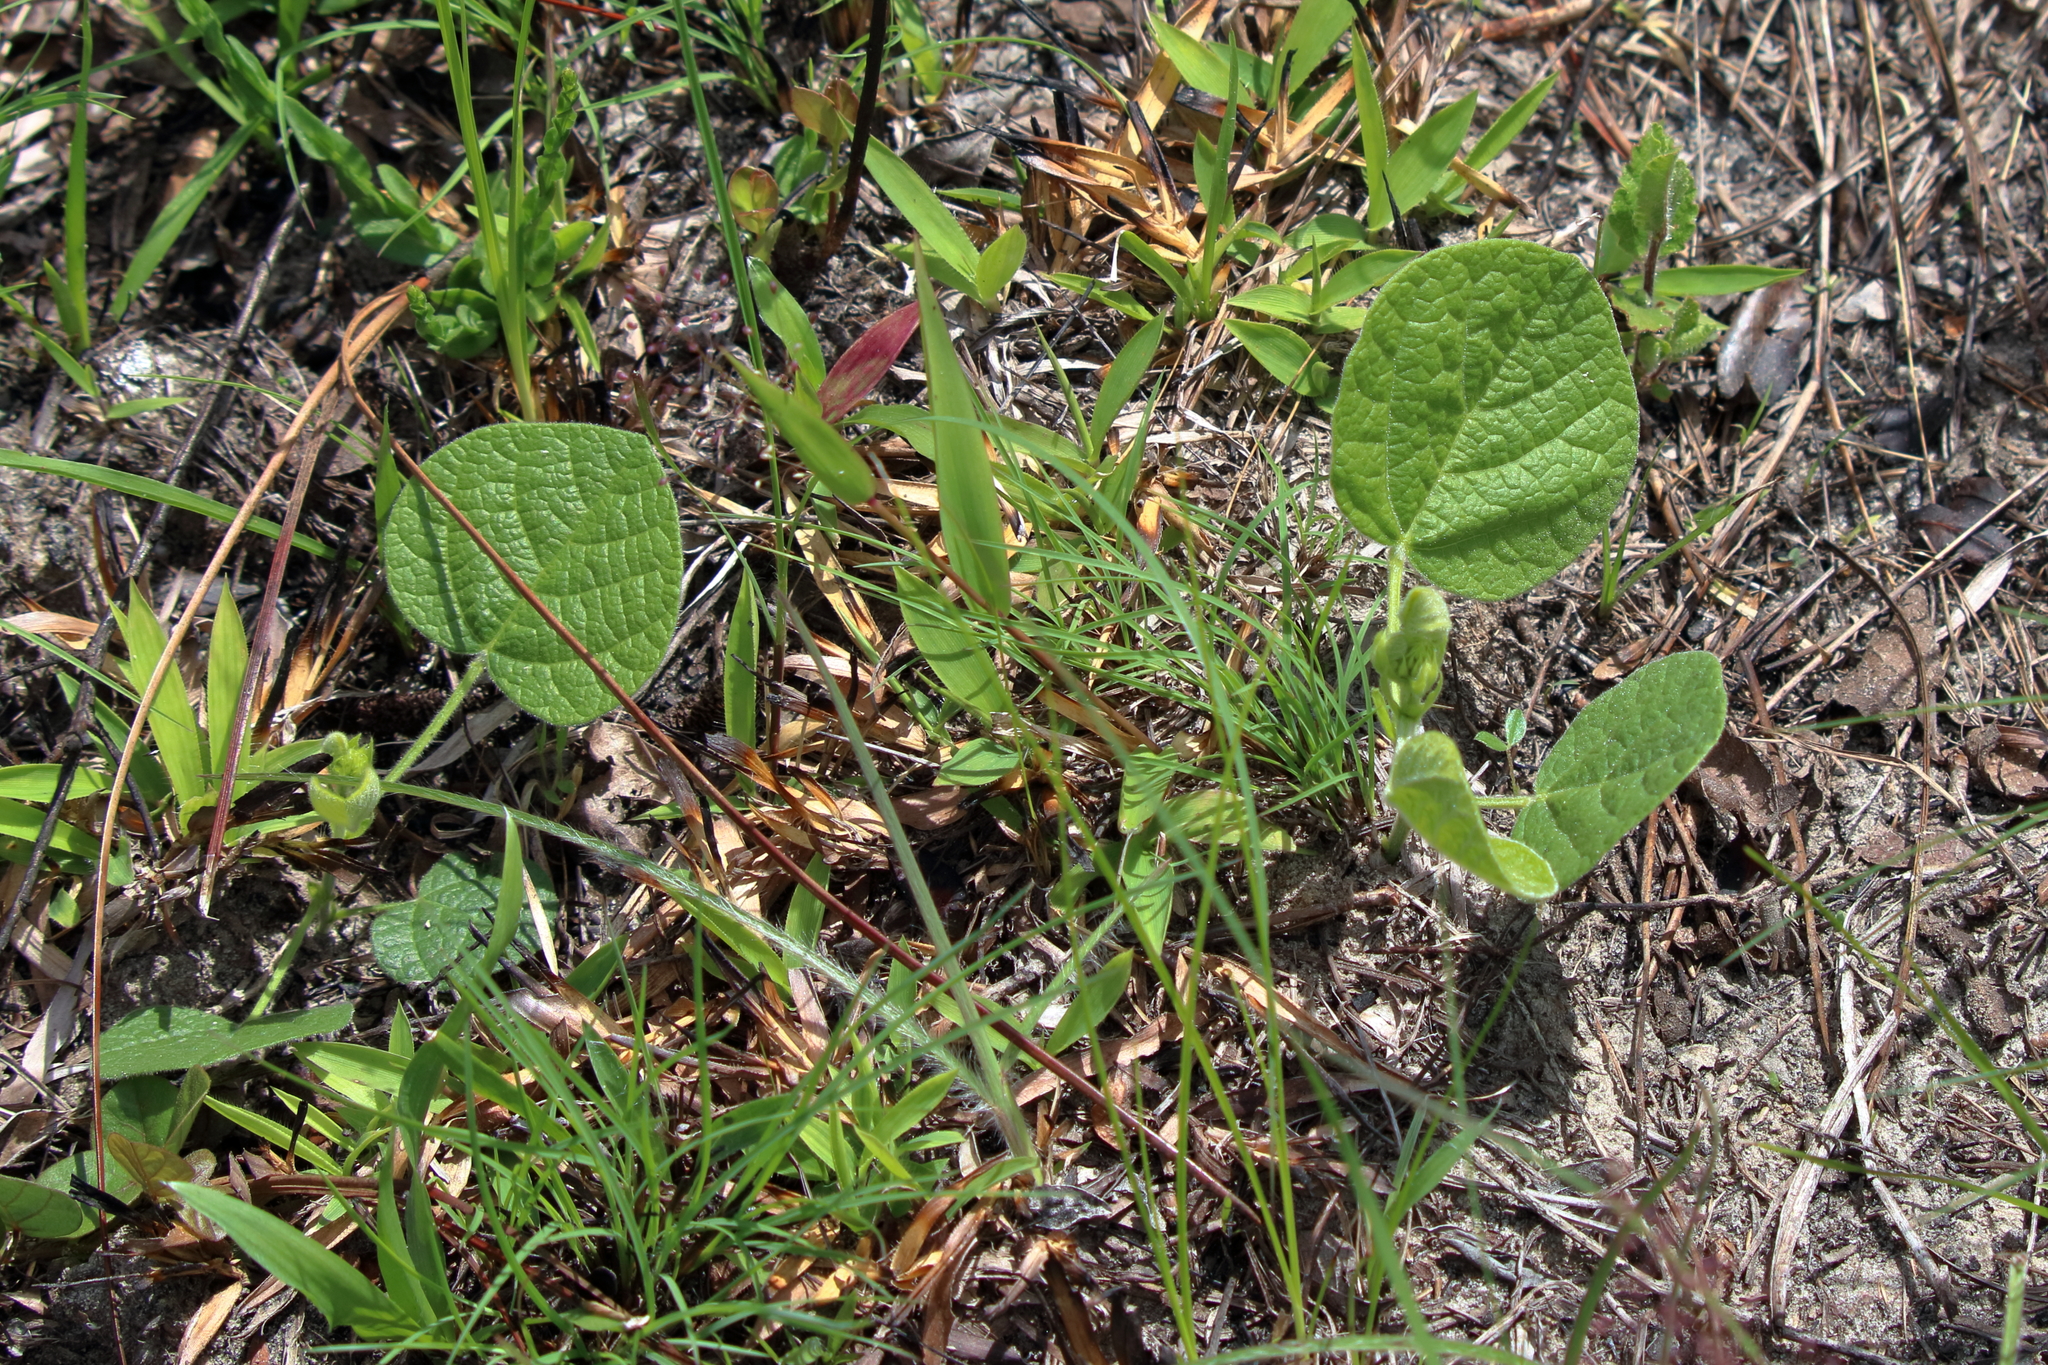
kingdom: Plantae
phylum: Tracheophyta
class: Magnoliopsida
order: Fabales
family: Fabaceae
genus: Rhynchosia
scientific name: Rhynchosia reniformis
